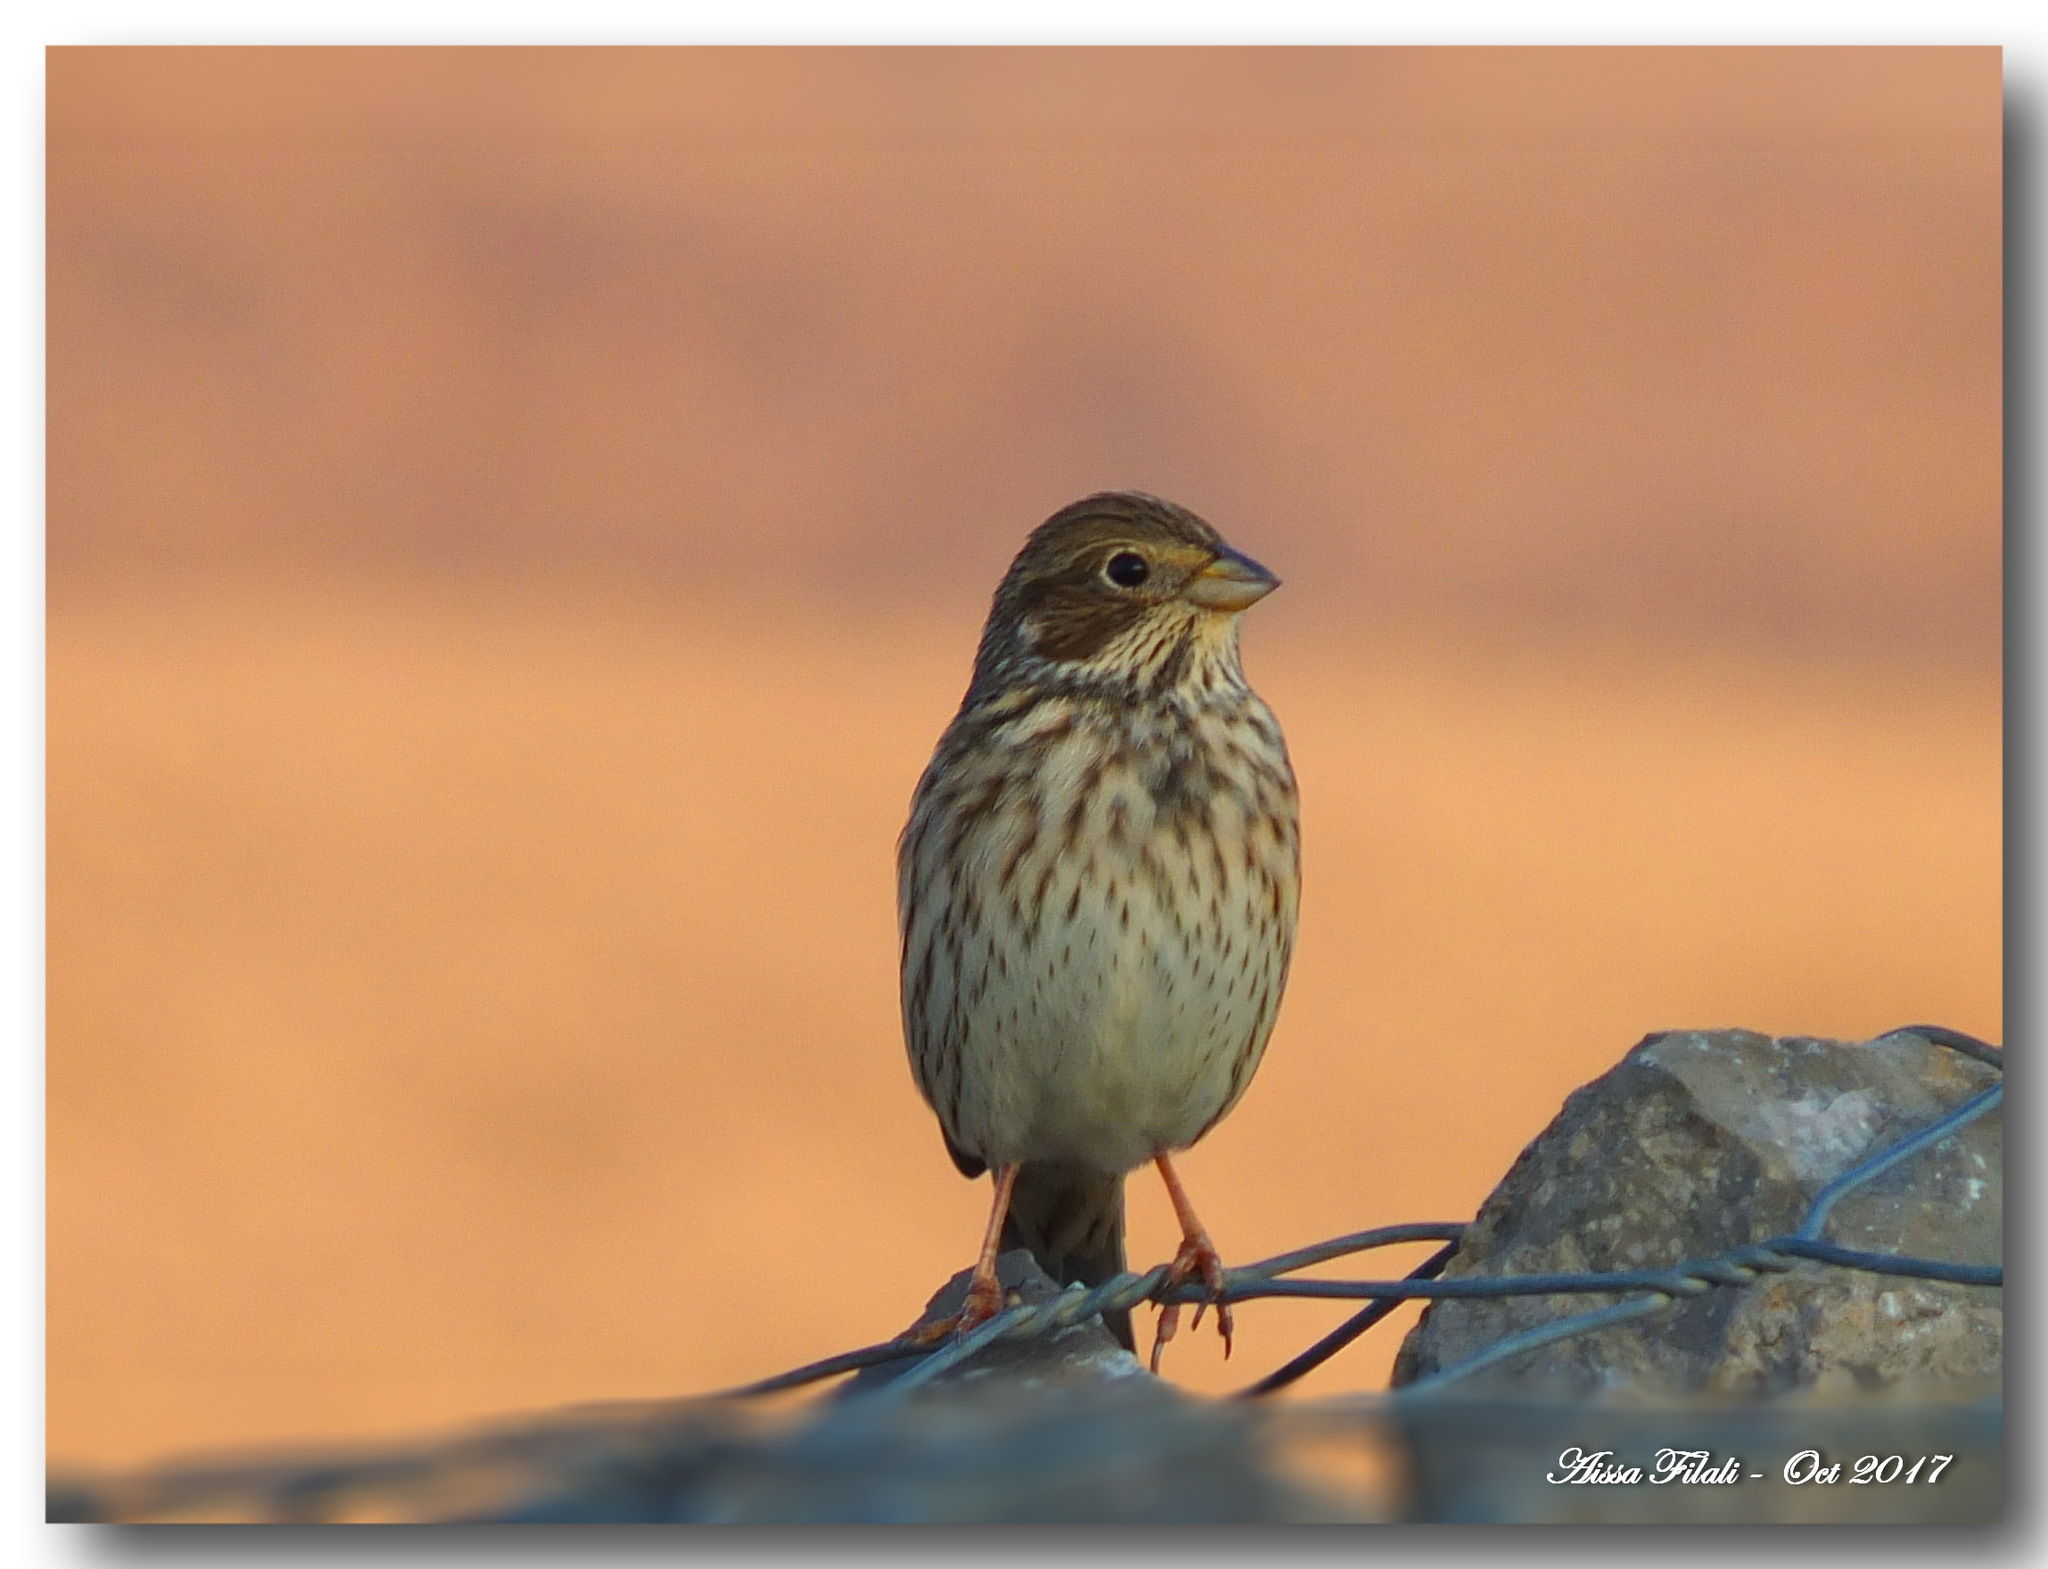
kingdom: Animalia
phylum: Chordata
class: Aves
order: Passeriformes
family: Emberizidae
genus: Emberiza
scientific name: Emberiza calandra
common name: Corn bunting
